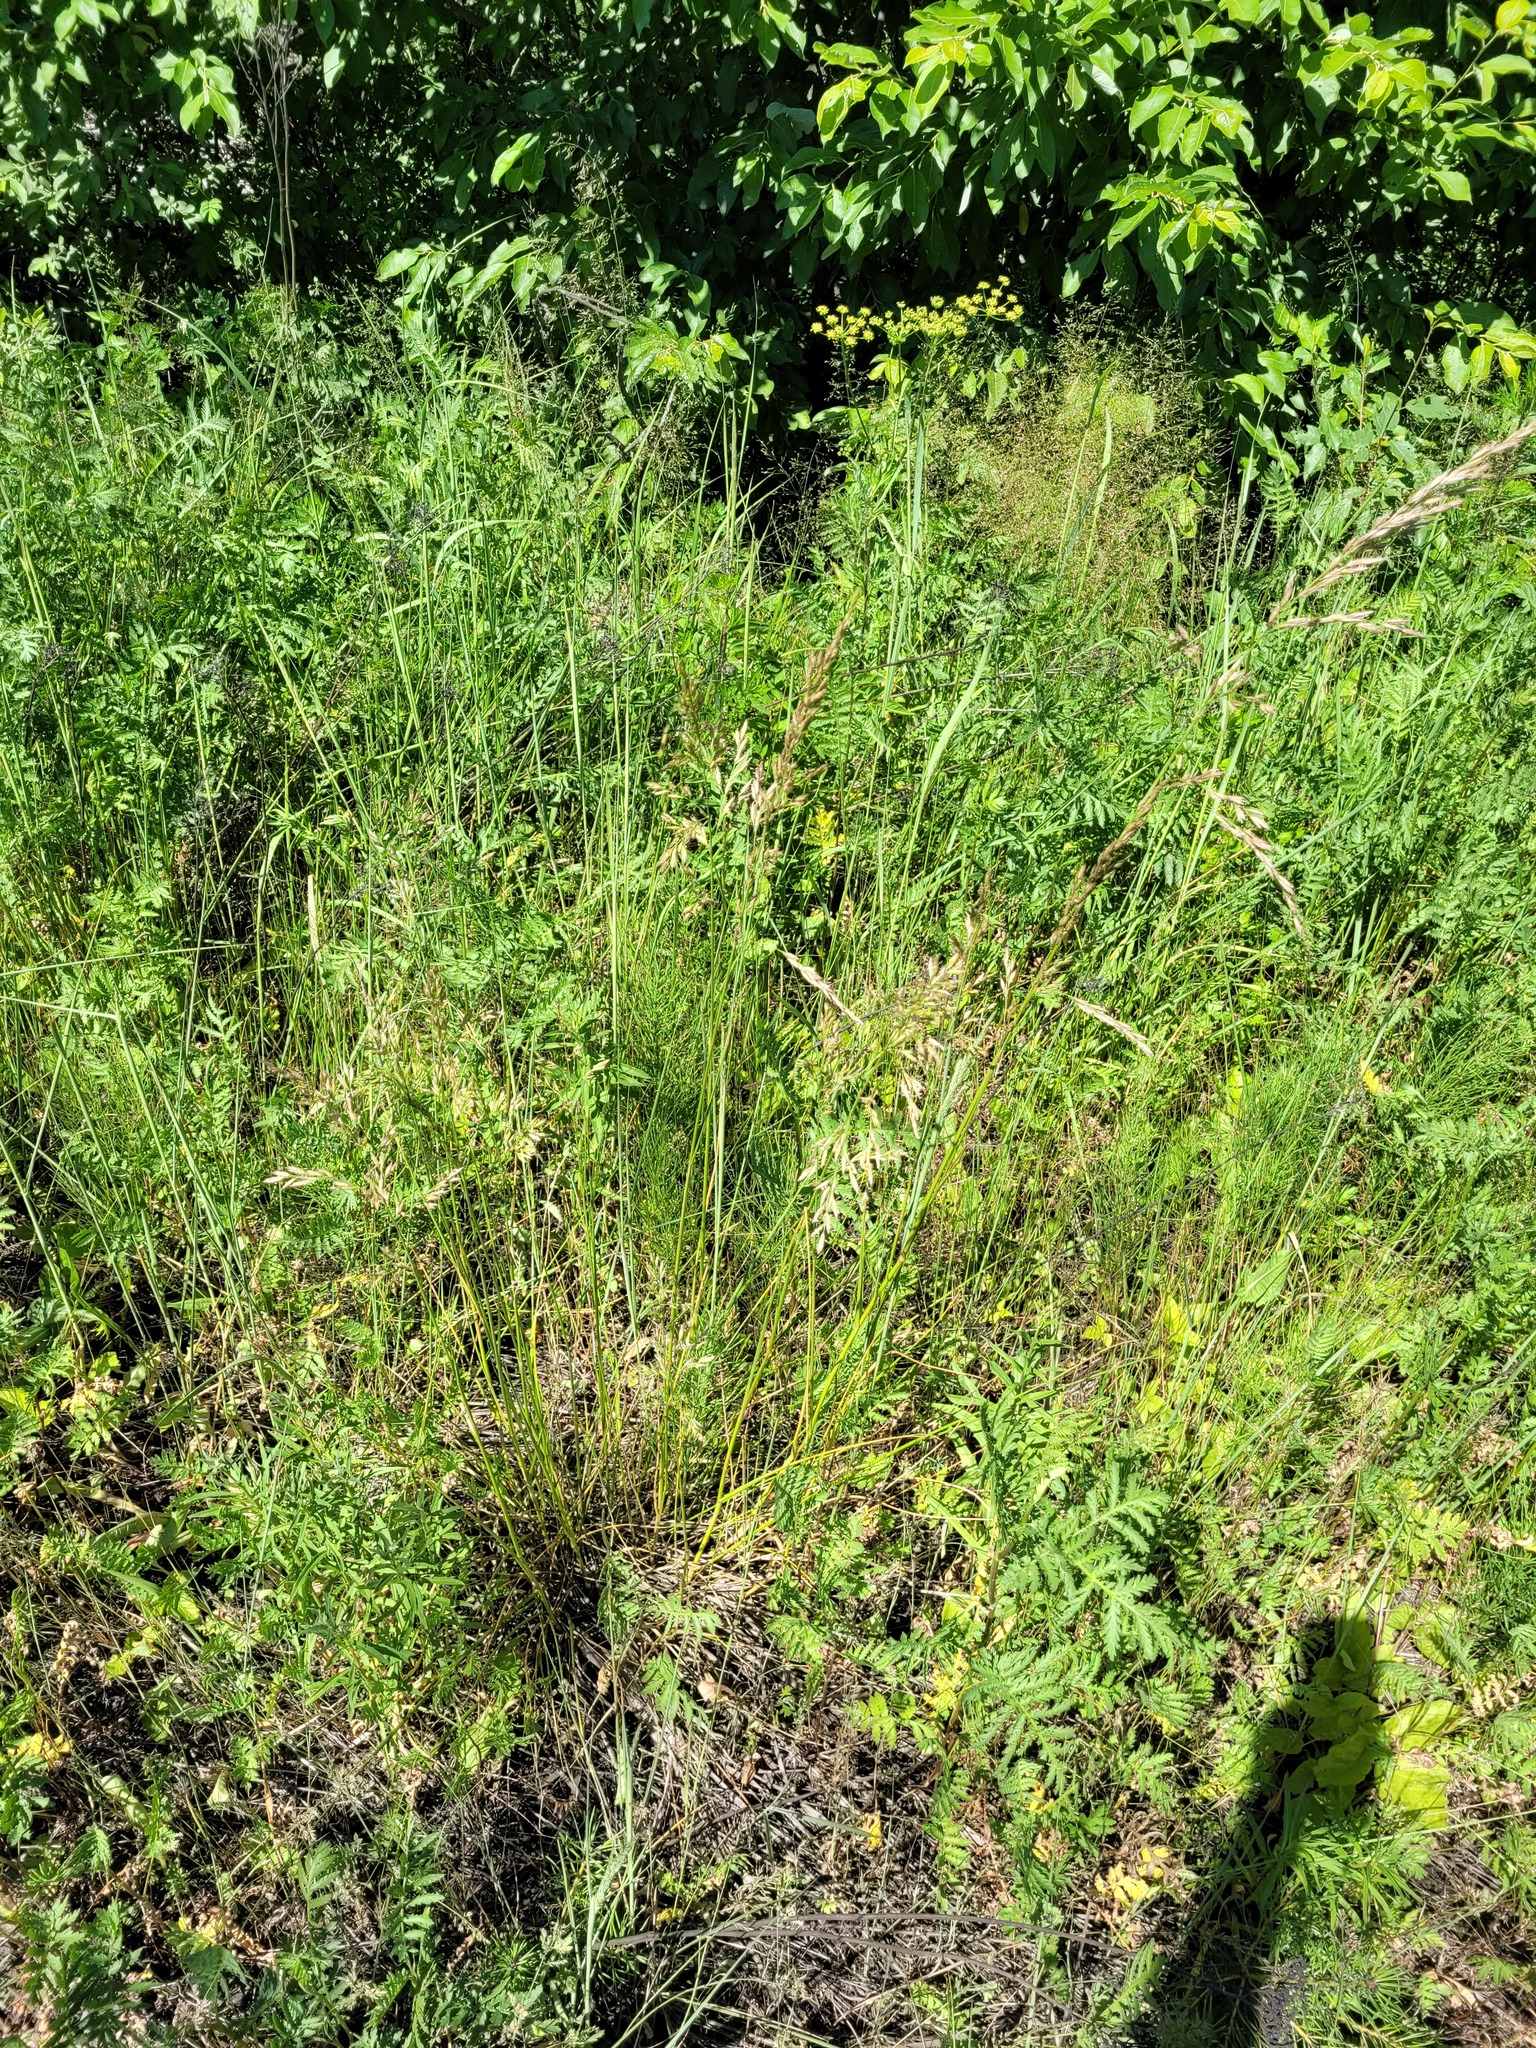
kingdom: Plantae
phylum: Tracheophyta
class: Liliopsida
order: Poales
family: Poaceae
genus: Lolium
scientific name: Lolium arundinaceum
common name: Reed fescue
